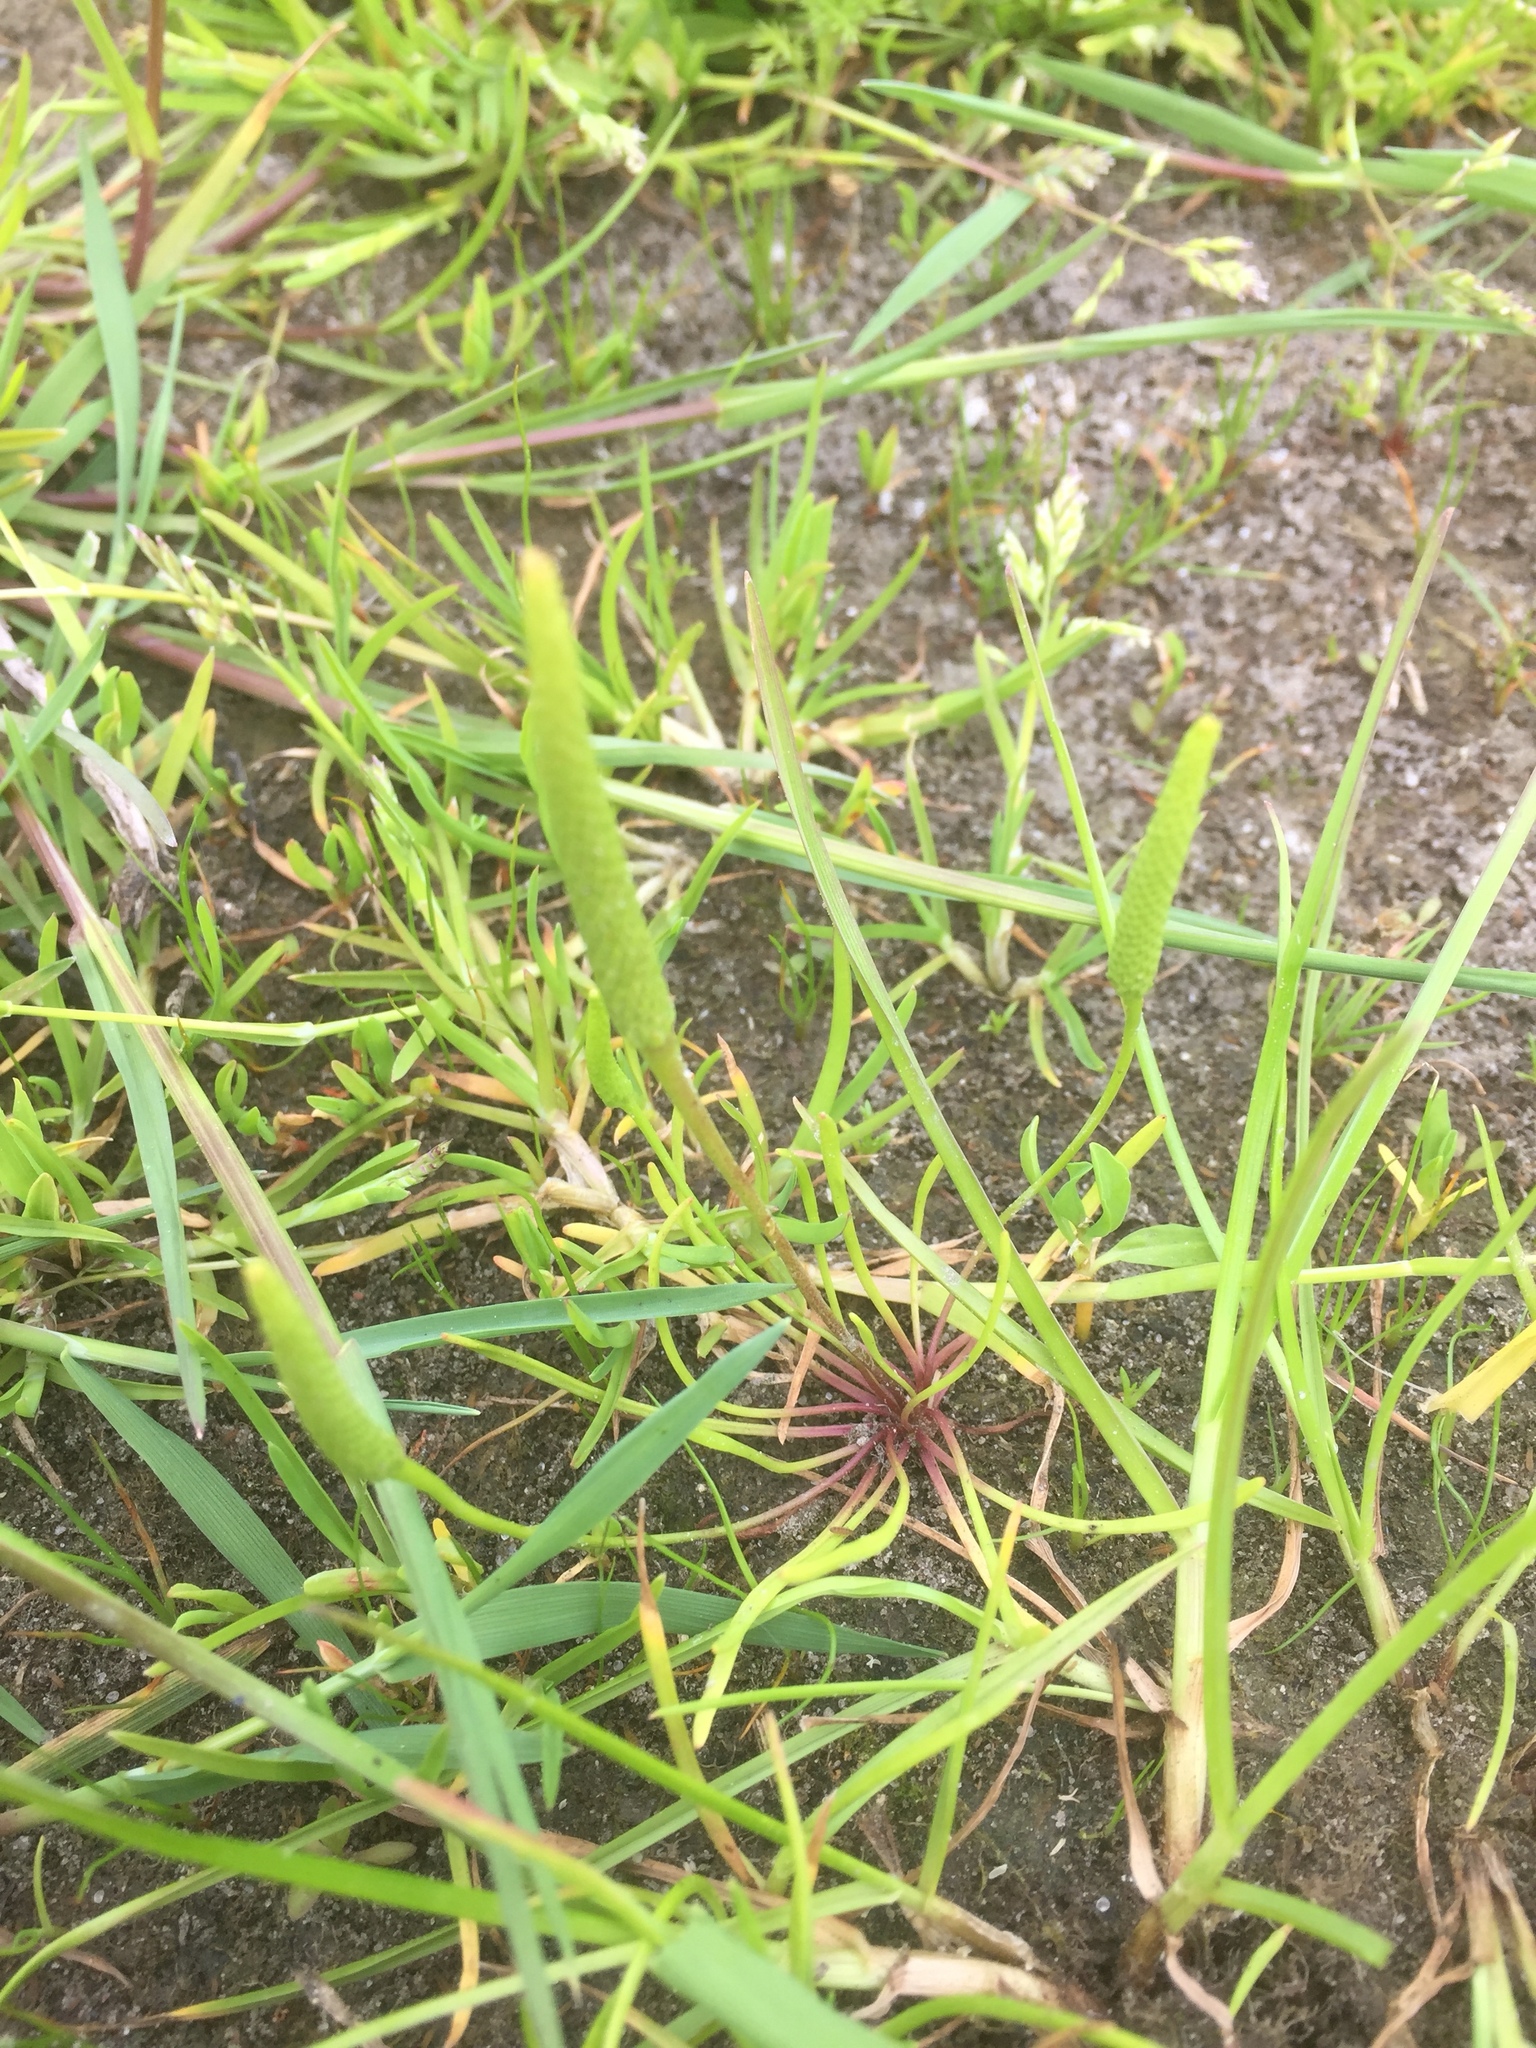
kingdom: Plantae
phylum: Tracheophyta
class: Magnoliopsida
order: Ranunculales
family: Ranunculaceae
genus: Myosurus
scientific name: Myosurus minimus
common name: Mousetail
